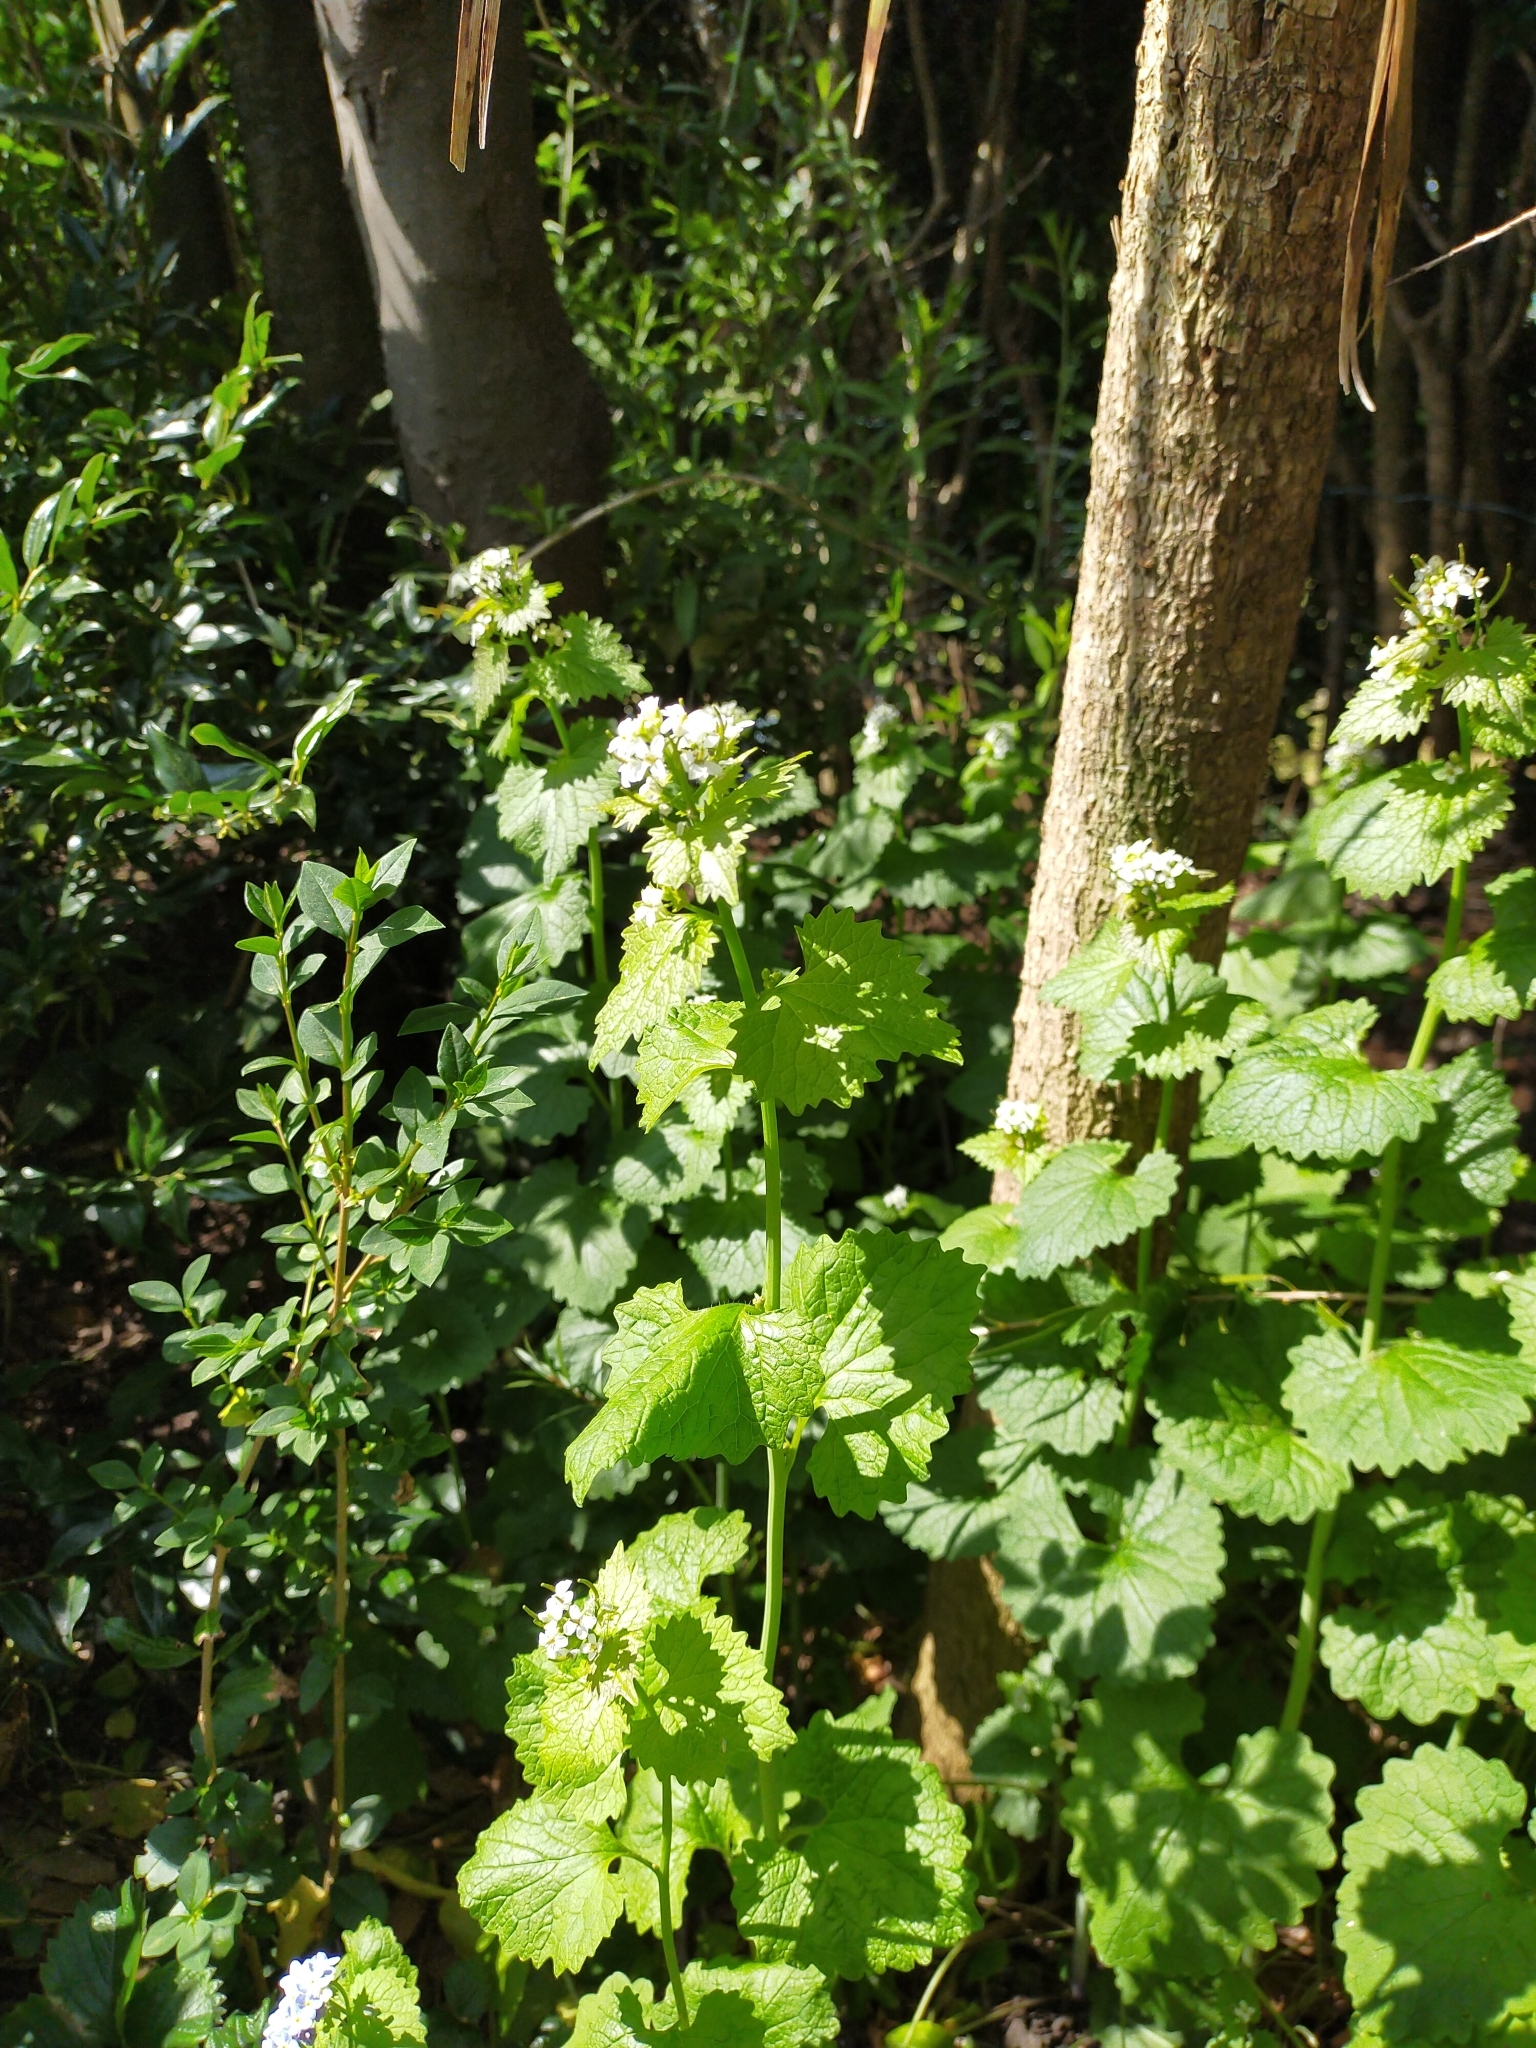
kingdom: Plantae
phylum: Tracheophyta
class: Magnoliopsida
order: Brassicales
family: Brassicaceae
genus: Alliaria
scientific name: Alliaria petiolata
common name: Garlic mustard
